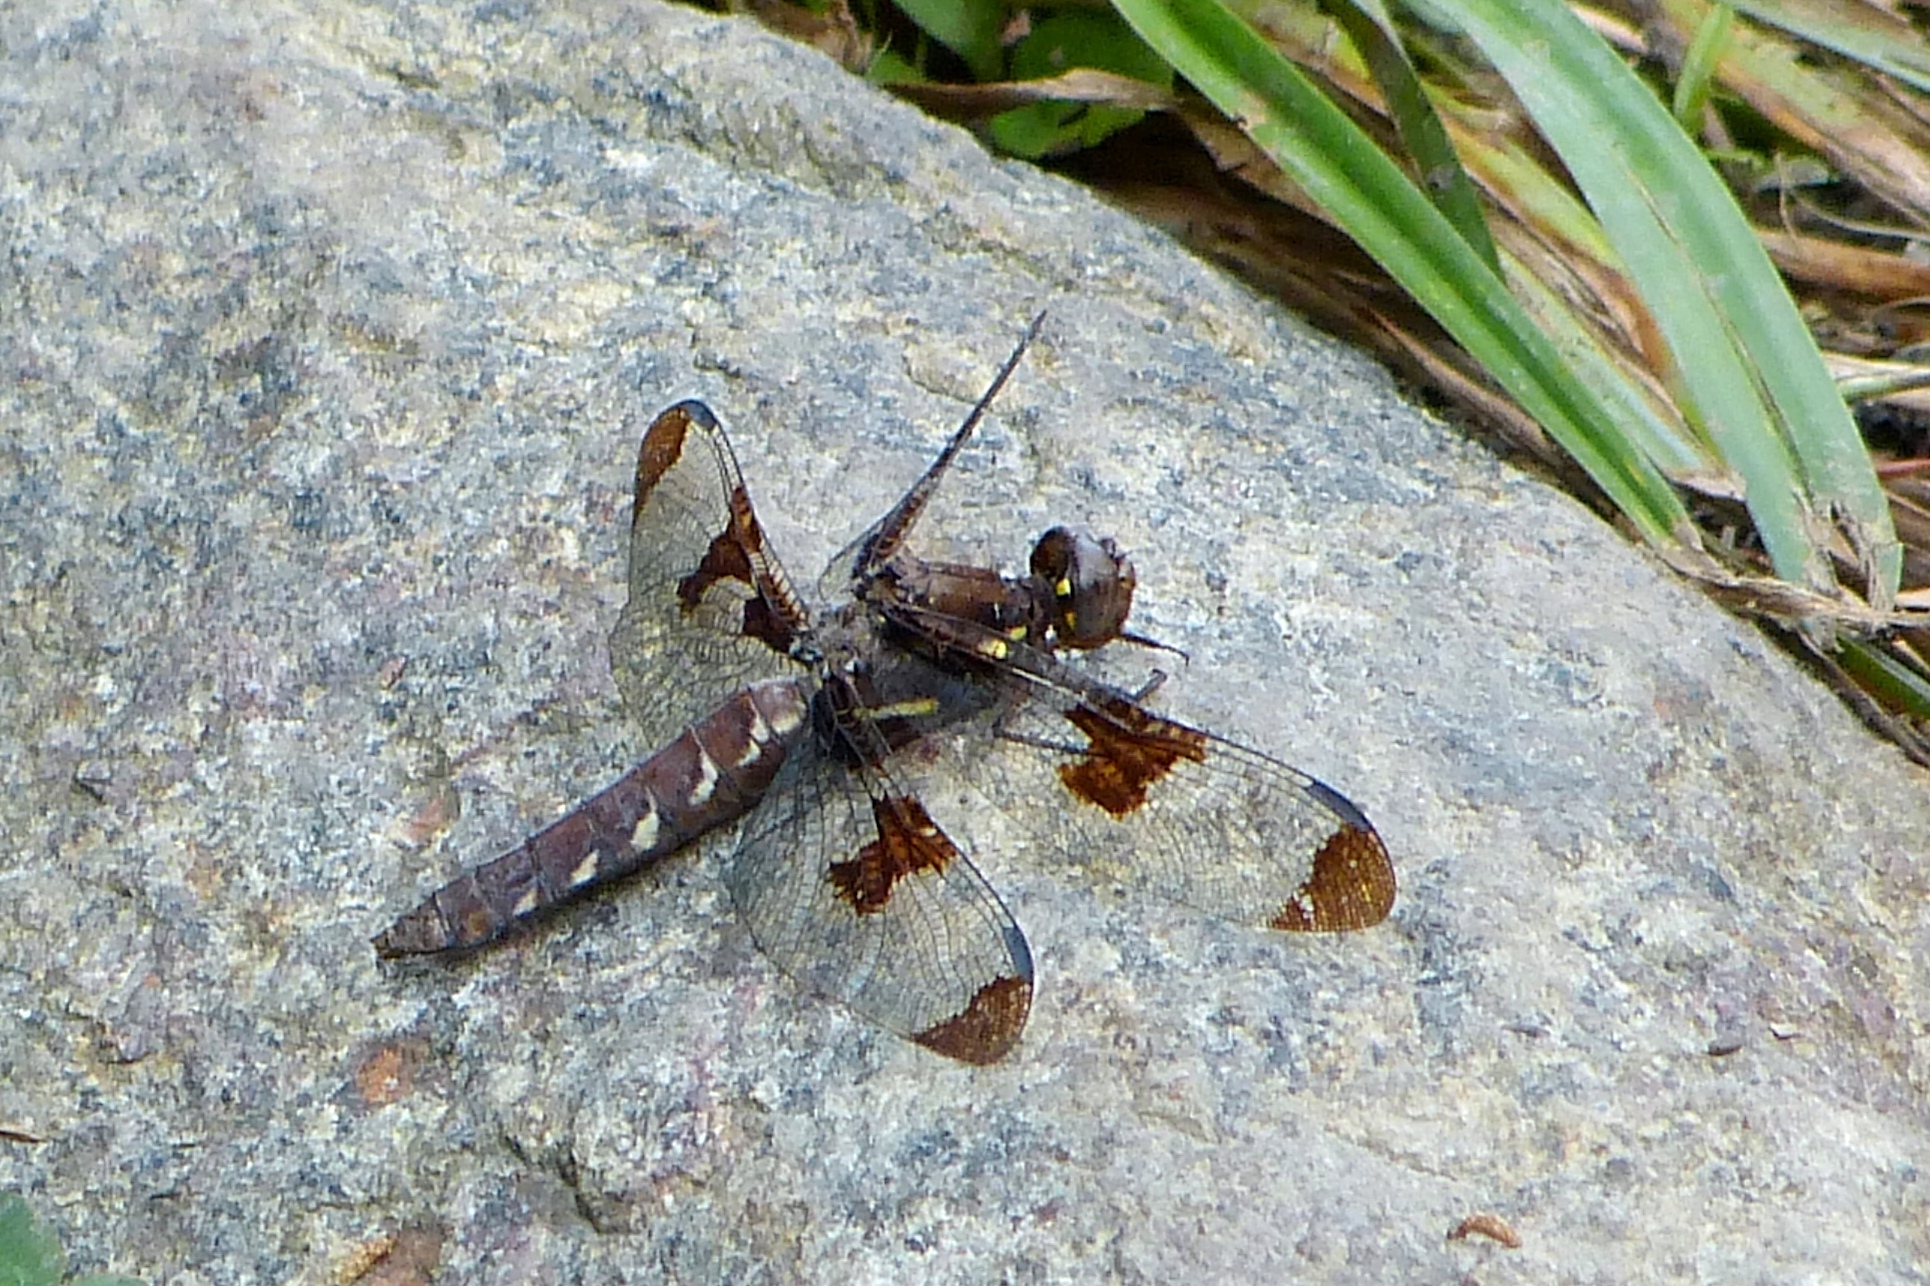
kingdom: Animalia
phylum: Arthropoda
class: Insecta
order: Odonata
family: Libellulidae
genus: Plathemis
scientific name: Plathemis lydia
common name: Common whitetail
